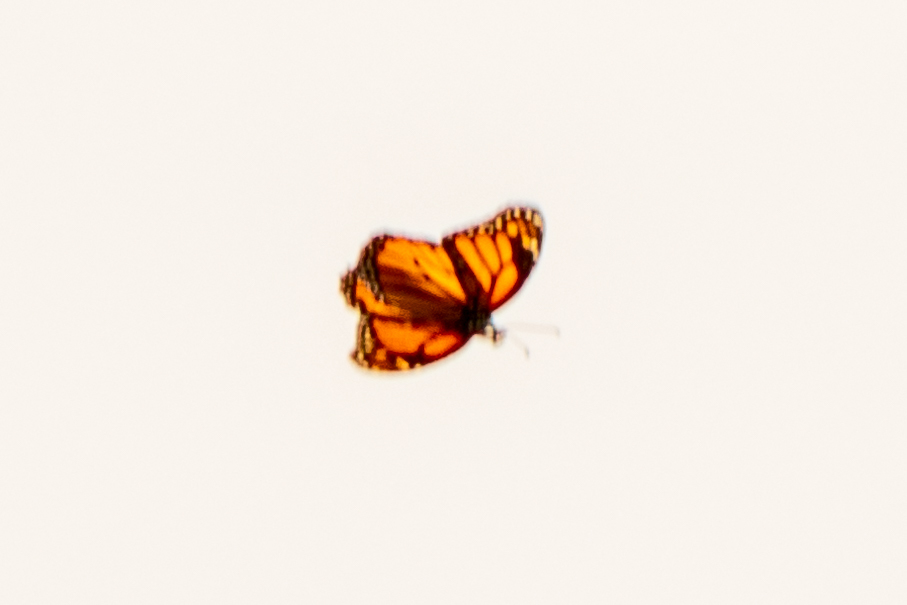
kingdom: Animalia
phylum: Arthropoda
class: Insecta
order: Lepidoptera
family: Nymphalidae
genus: Danaus
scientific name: Danaus plexippus
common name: Monarch
